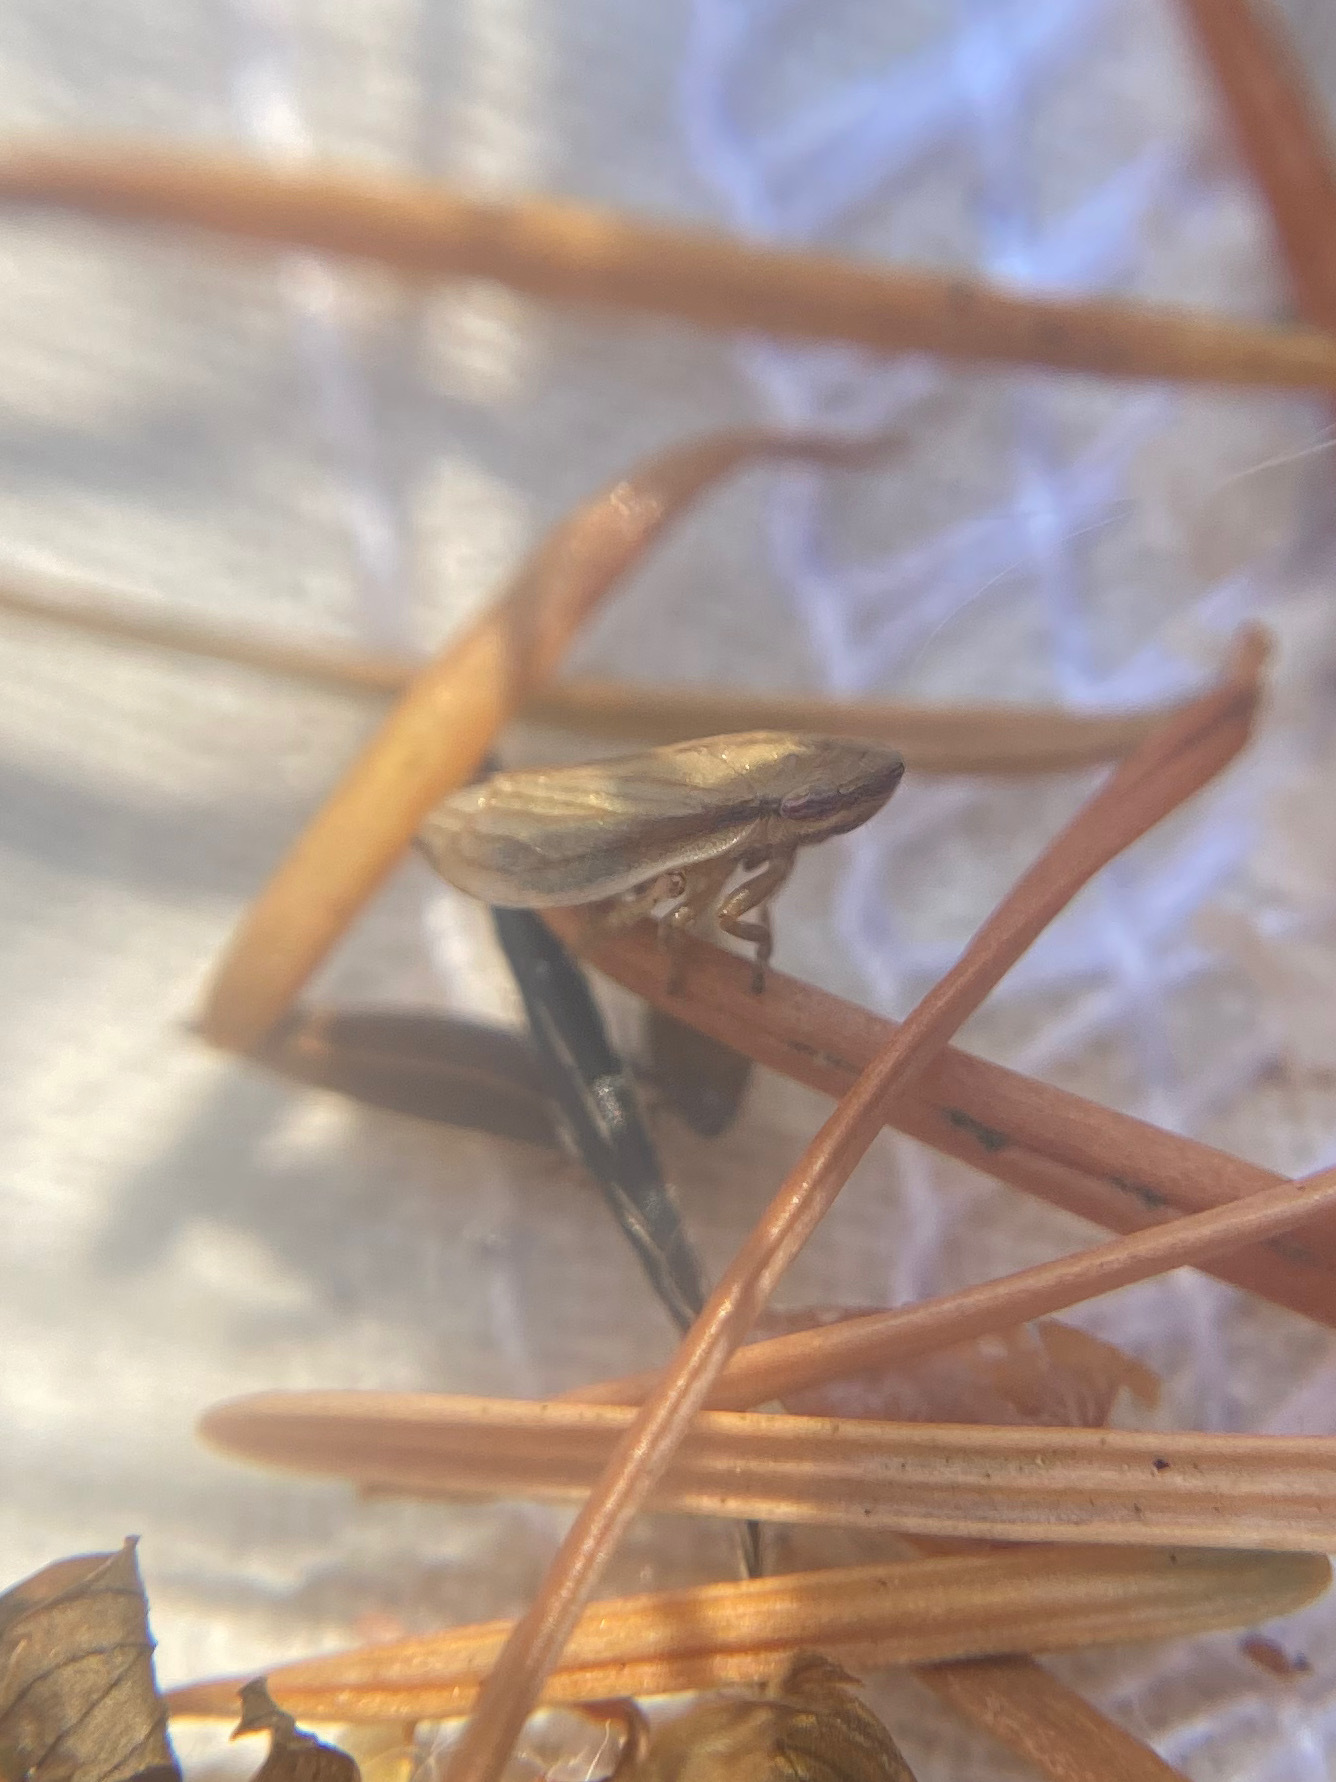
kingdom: Animalia
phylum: Arthropoda
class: Insecta
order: Hemiptera
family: Aphrophoridae
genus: Neophilaenus
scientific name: Neophilaenus lineatus
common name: Spittlebug
